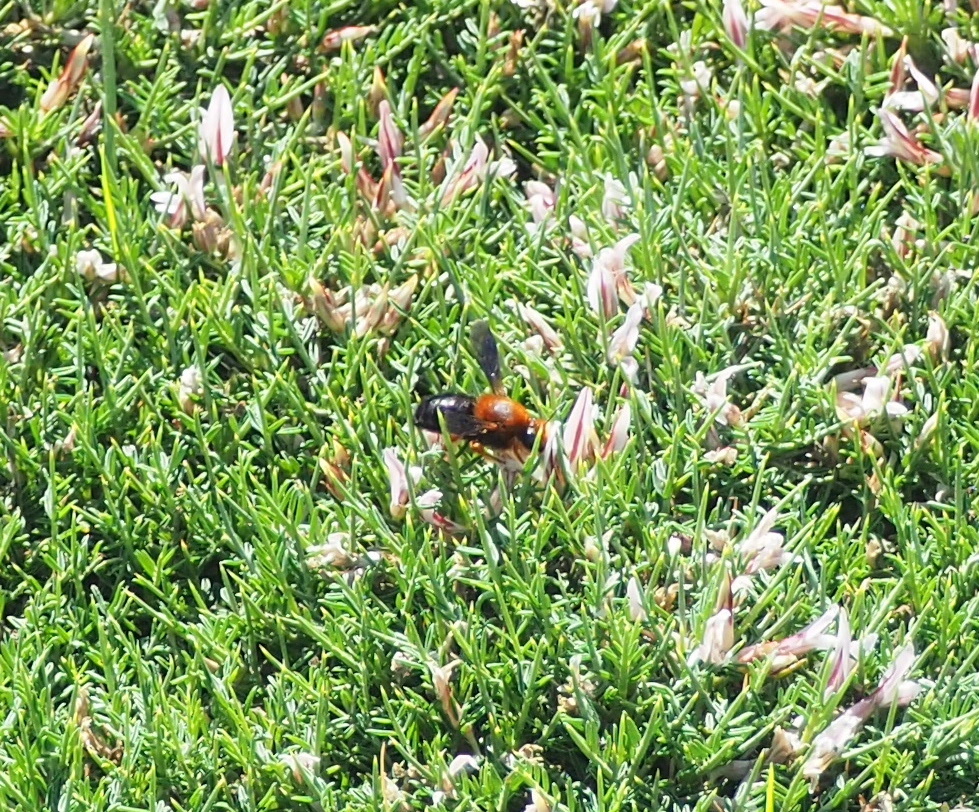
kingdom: Animalia
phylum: Arthropoda
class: Insecta
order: Hymenoptera
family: Megachilidae
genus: Megachile
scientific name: Megachile sicula
